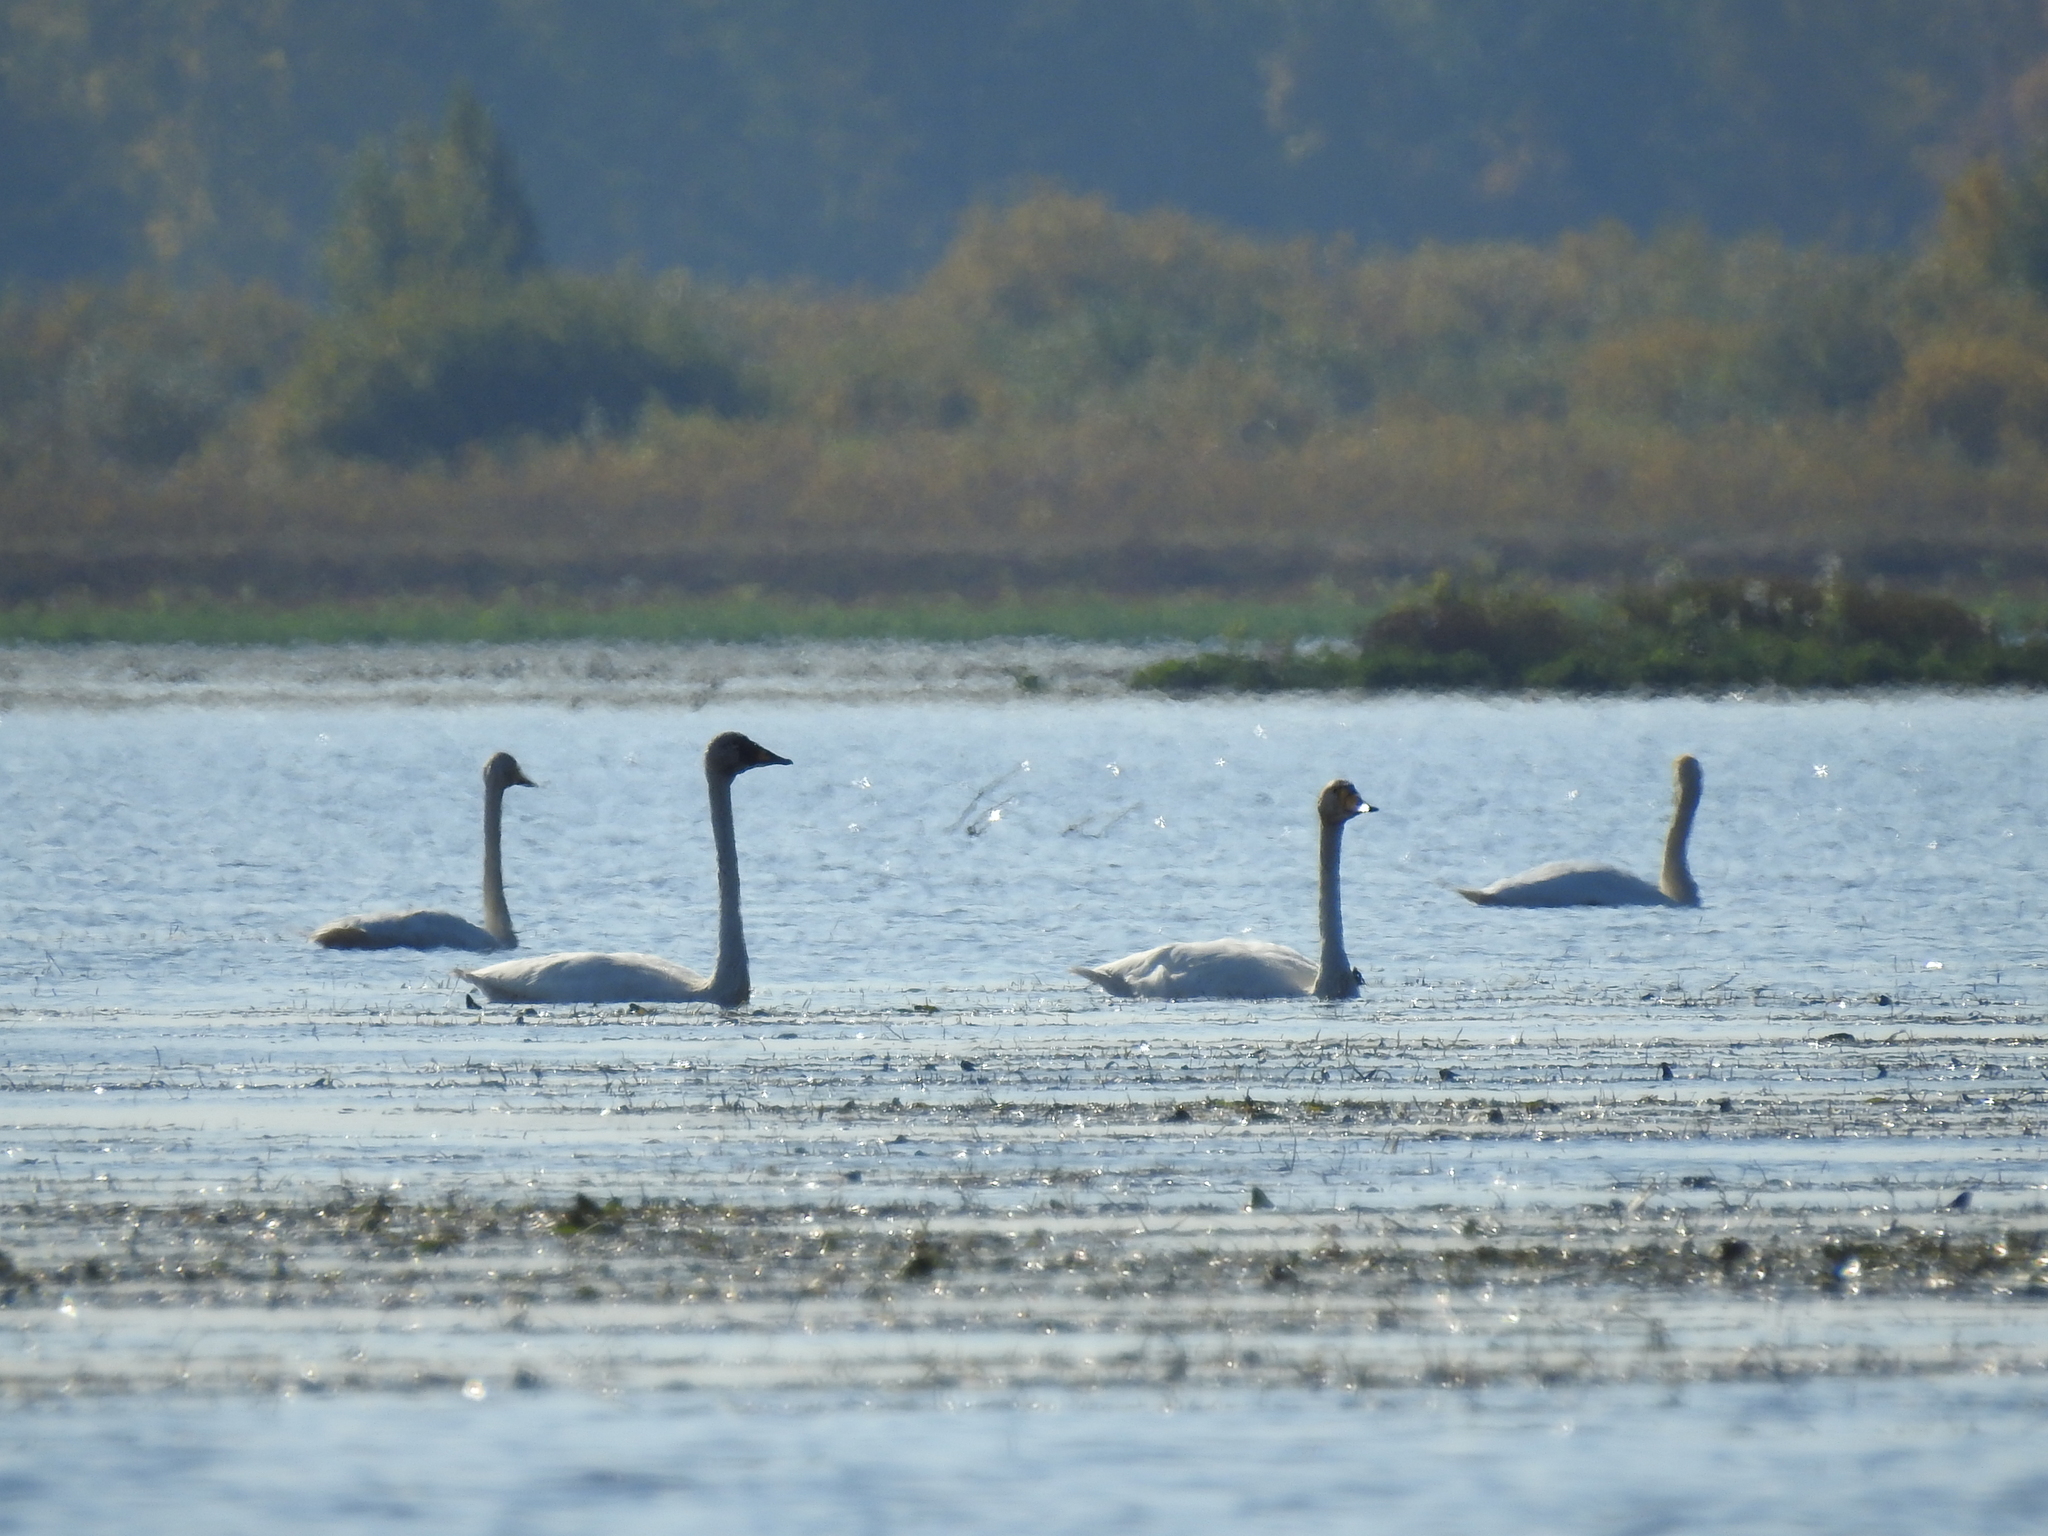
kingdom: Animalia
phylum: Chordata
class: Aves
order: Anseriformes
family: Anatidae
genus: Cygnus
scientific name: Cygnus cygnus
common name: Whooper swan
